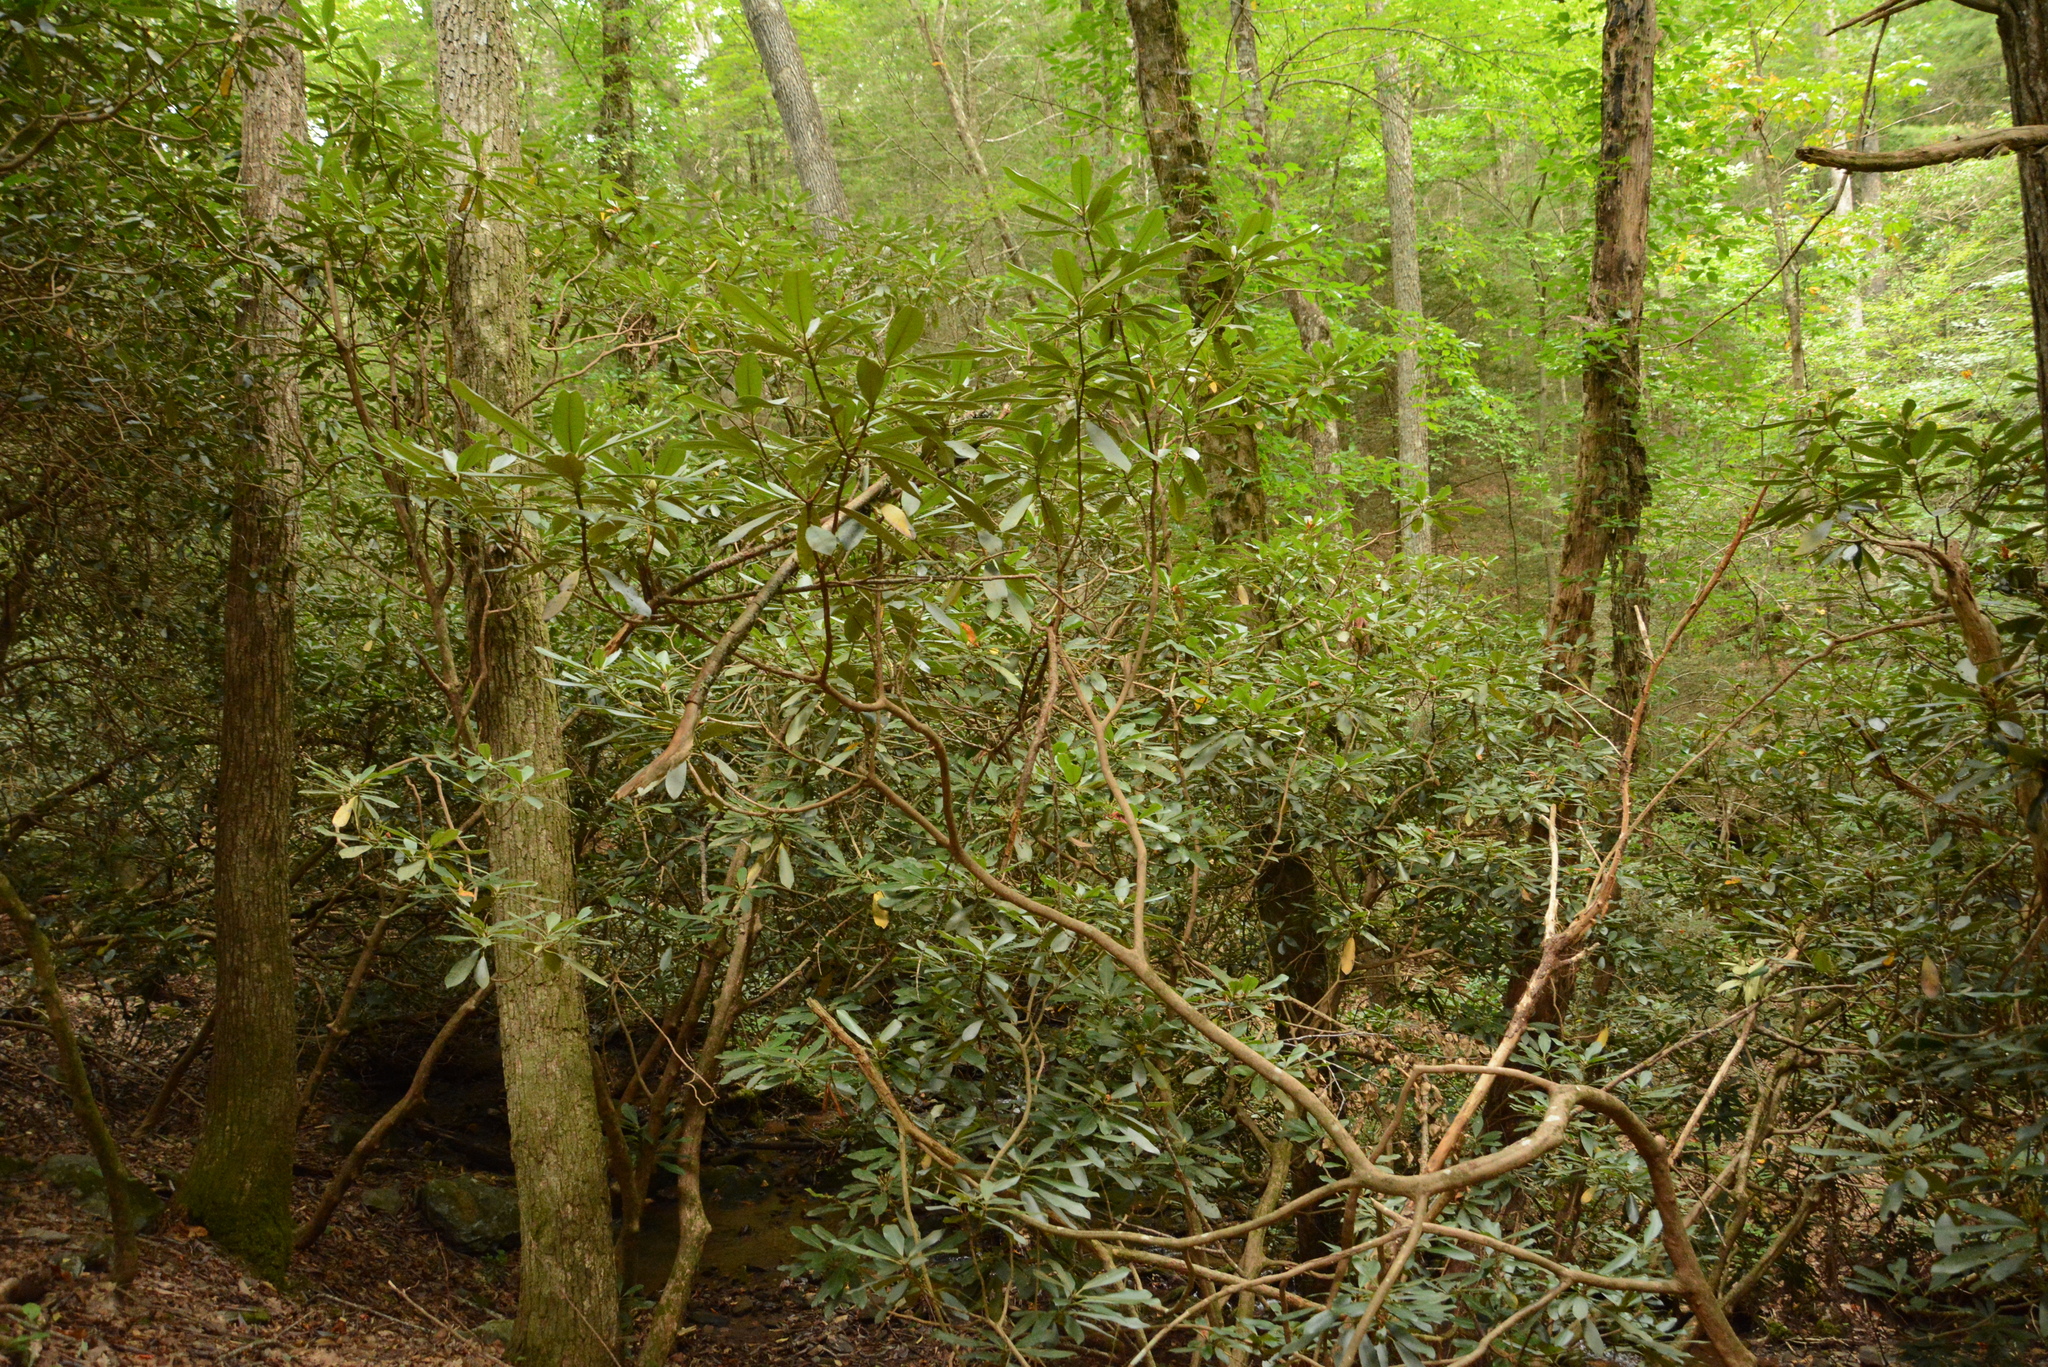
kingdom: Plantae
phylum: Tracheophyta
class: Magnoliopsida
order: Ericales
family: Ericaceae
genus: Rhododendron
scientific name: Rhododendron maximum
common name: Great rhododendron
